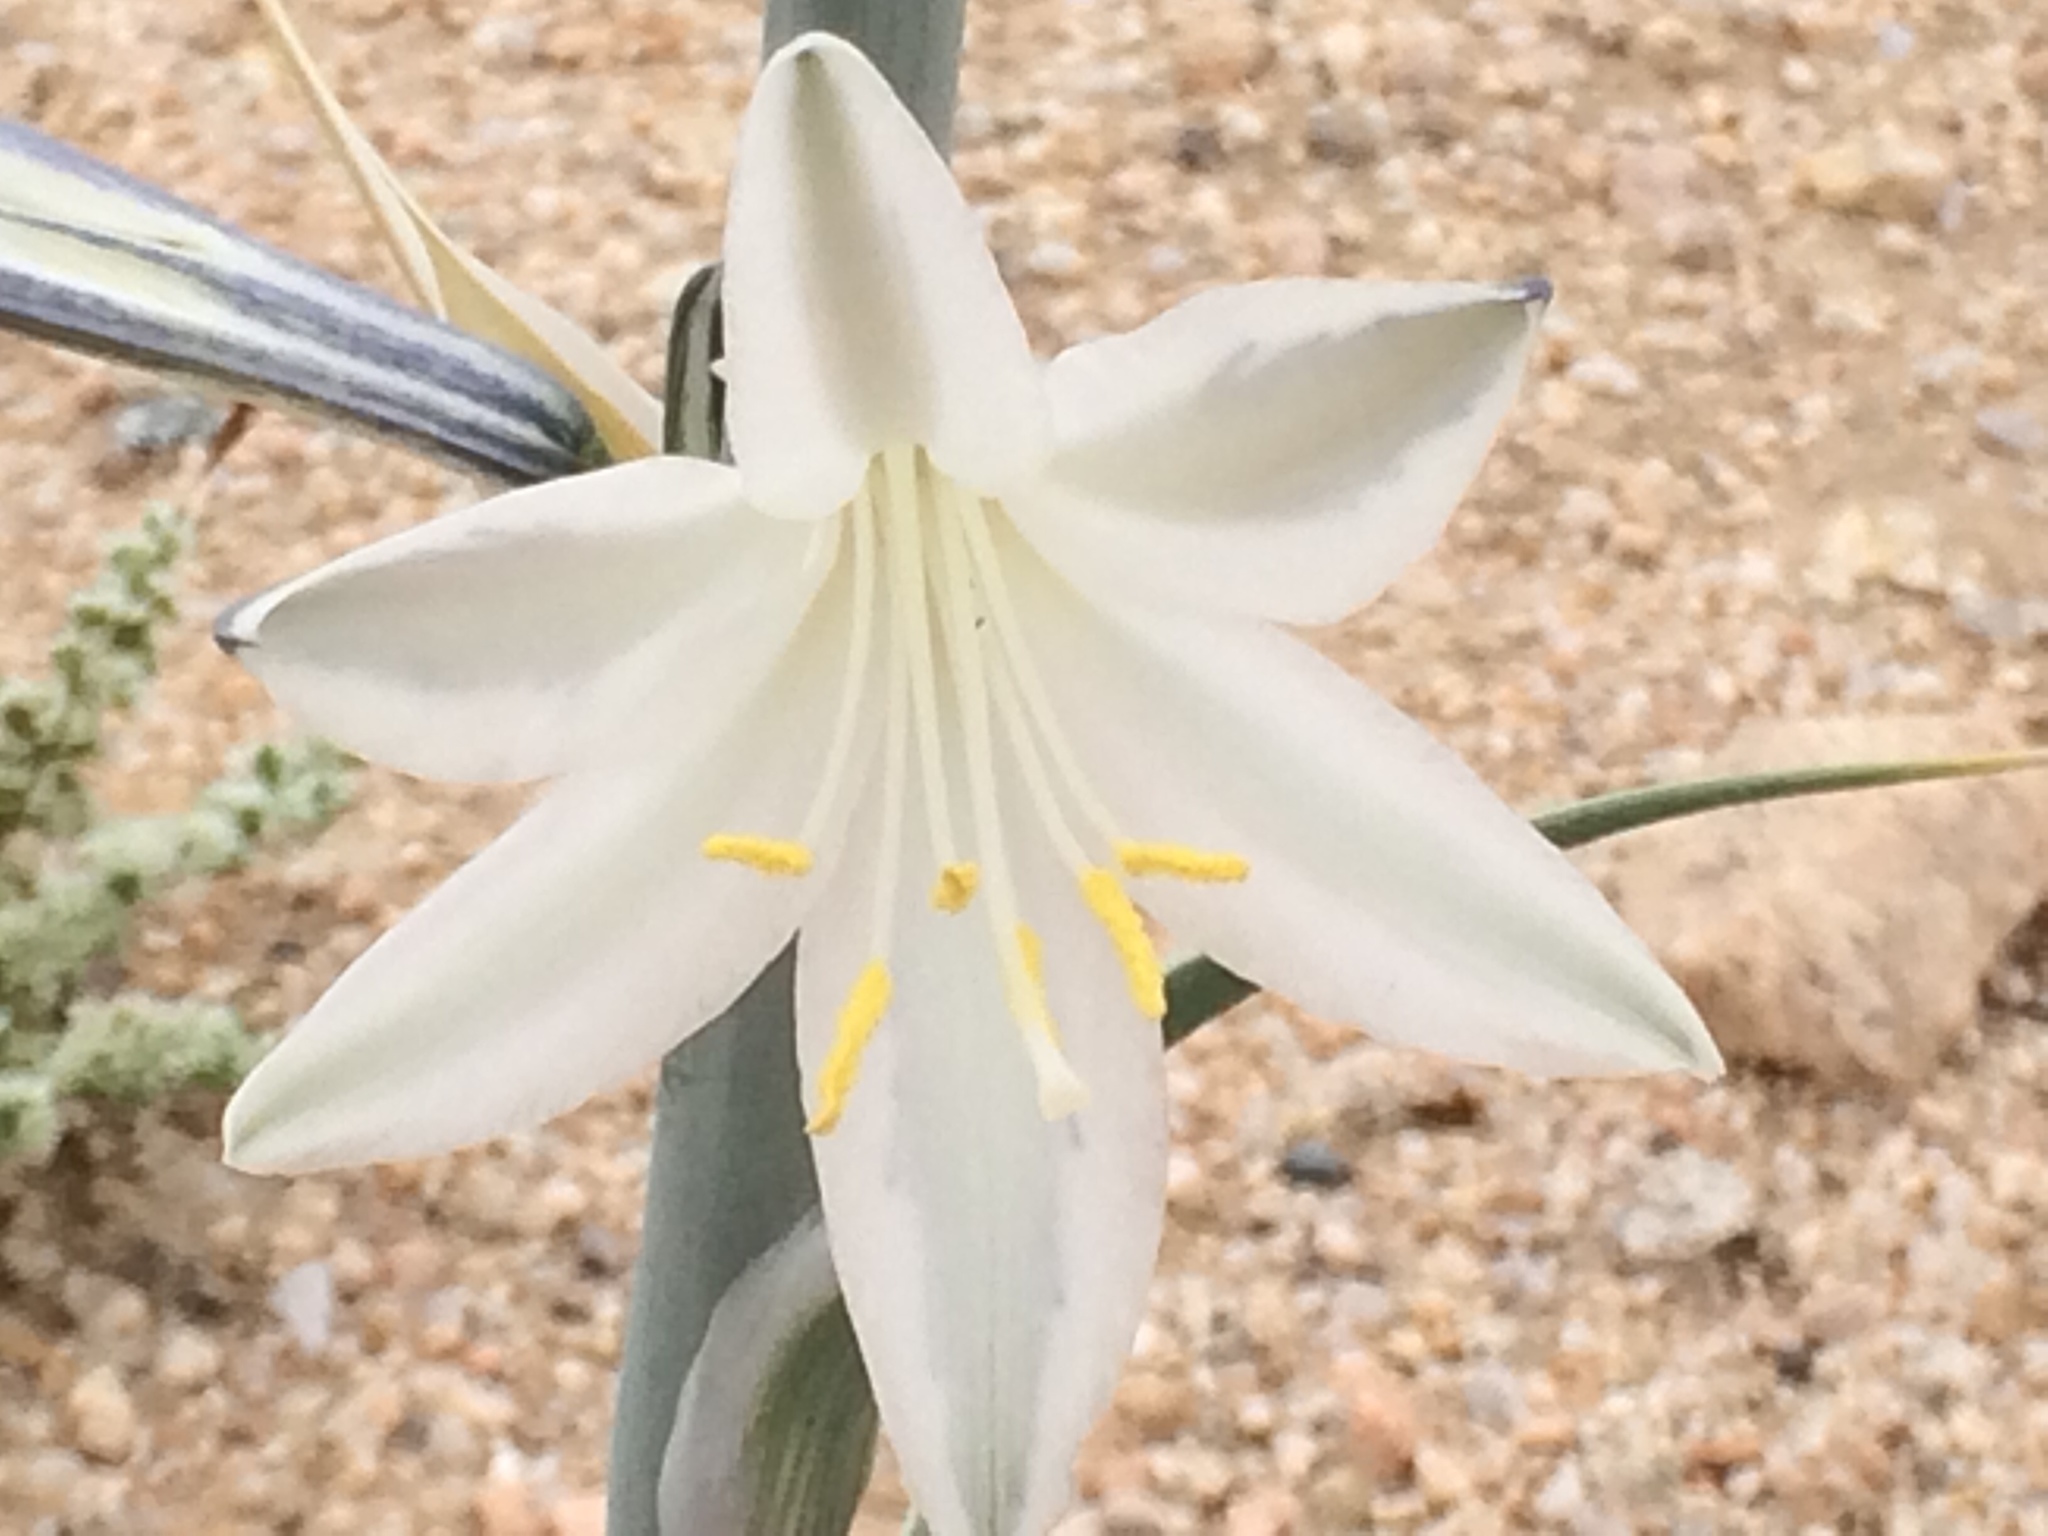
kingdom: Plantae
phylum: Tracheophyta
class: Liliopsida
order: Asparagales
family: Asparagaceae
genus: Hesperocallis
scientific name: Hesperocallis undulata
